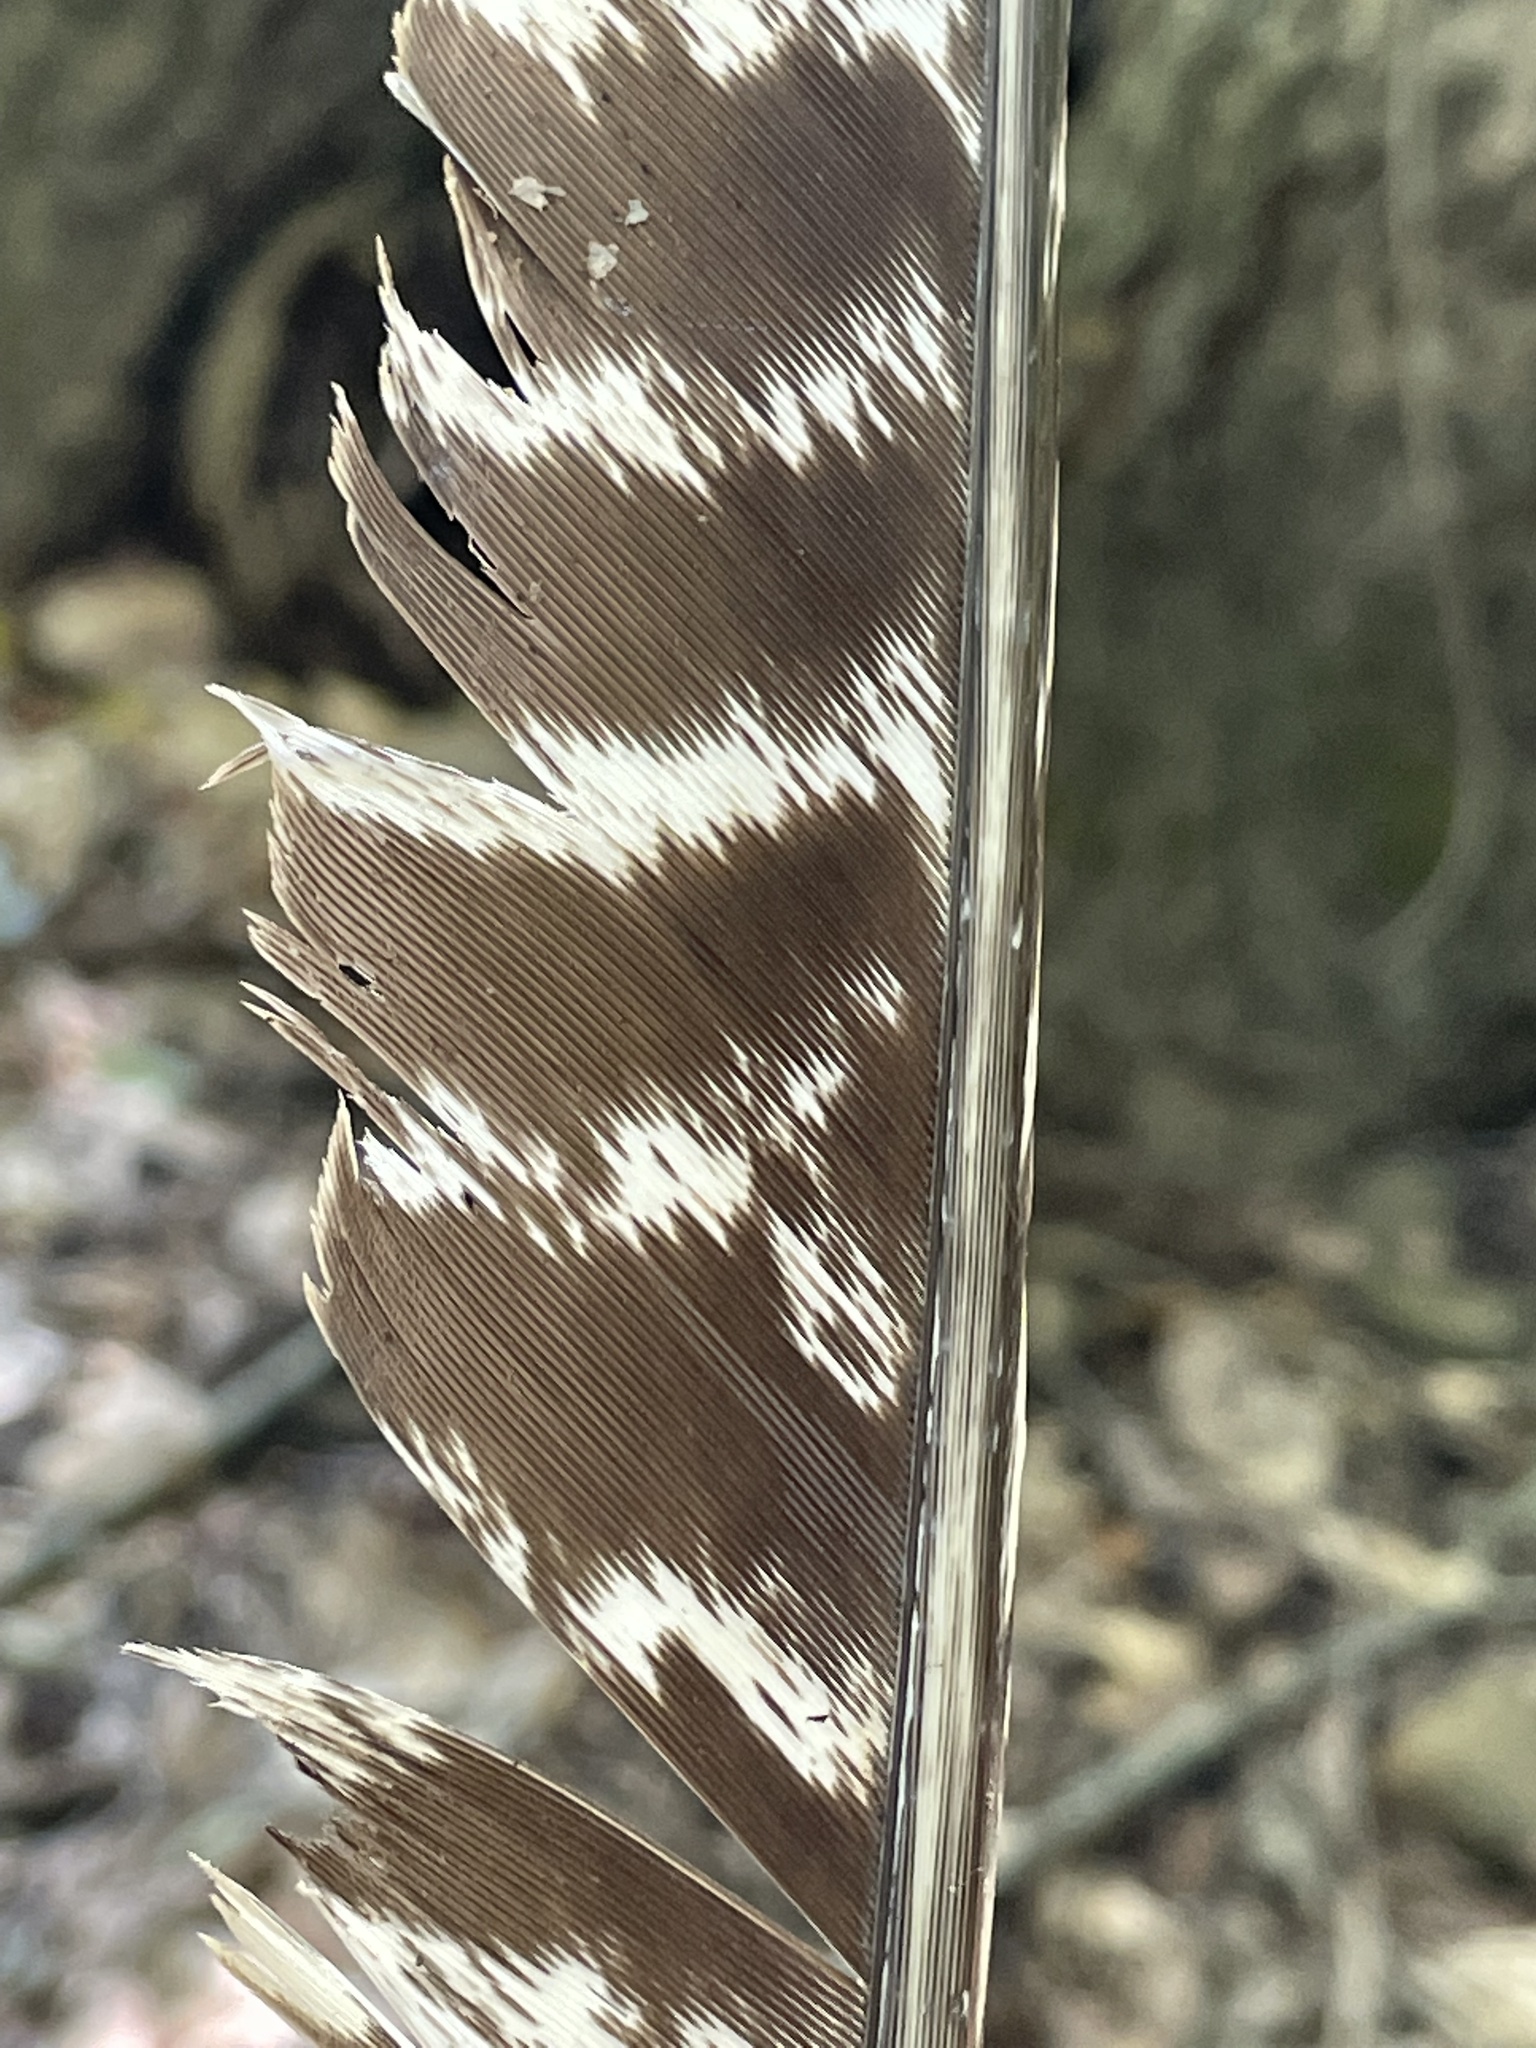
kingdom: Animalia
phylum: Chordata
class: Aves
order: Galliformes
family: Phasianidae
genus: Meleagris
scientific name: Meleagris gallopavo
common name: Wild turkey
